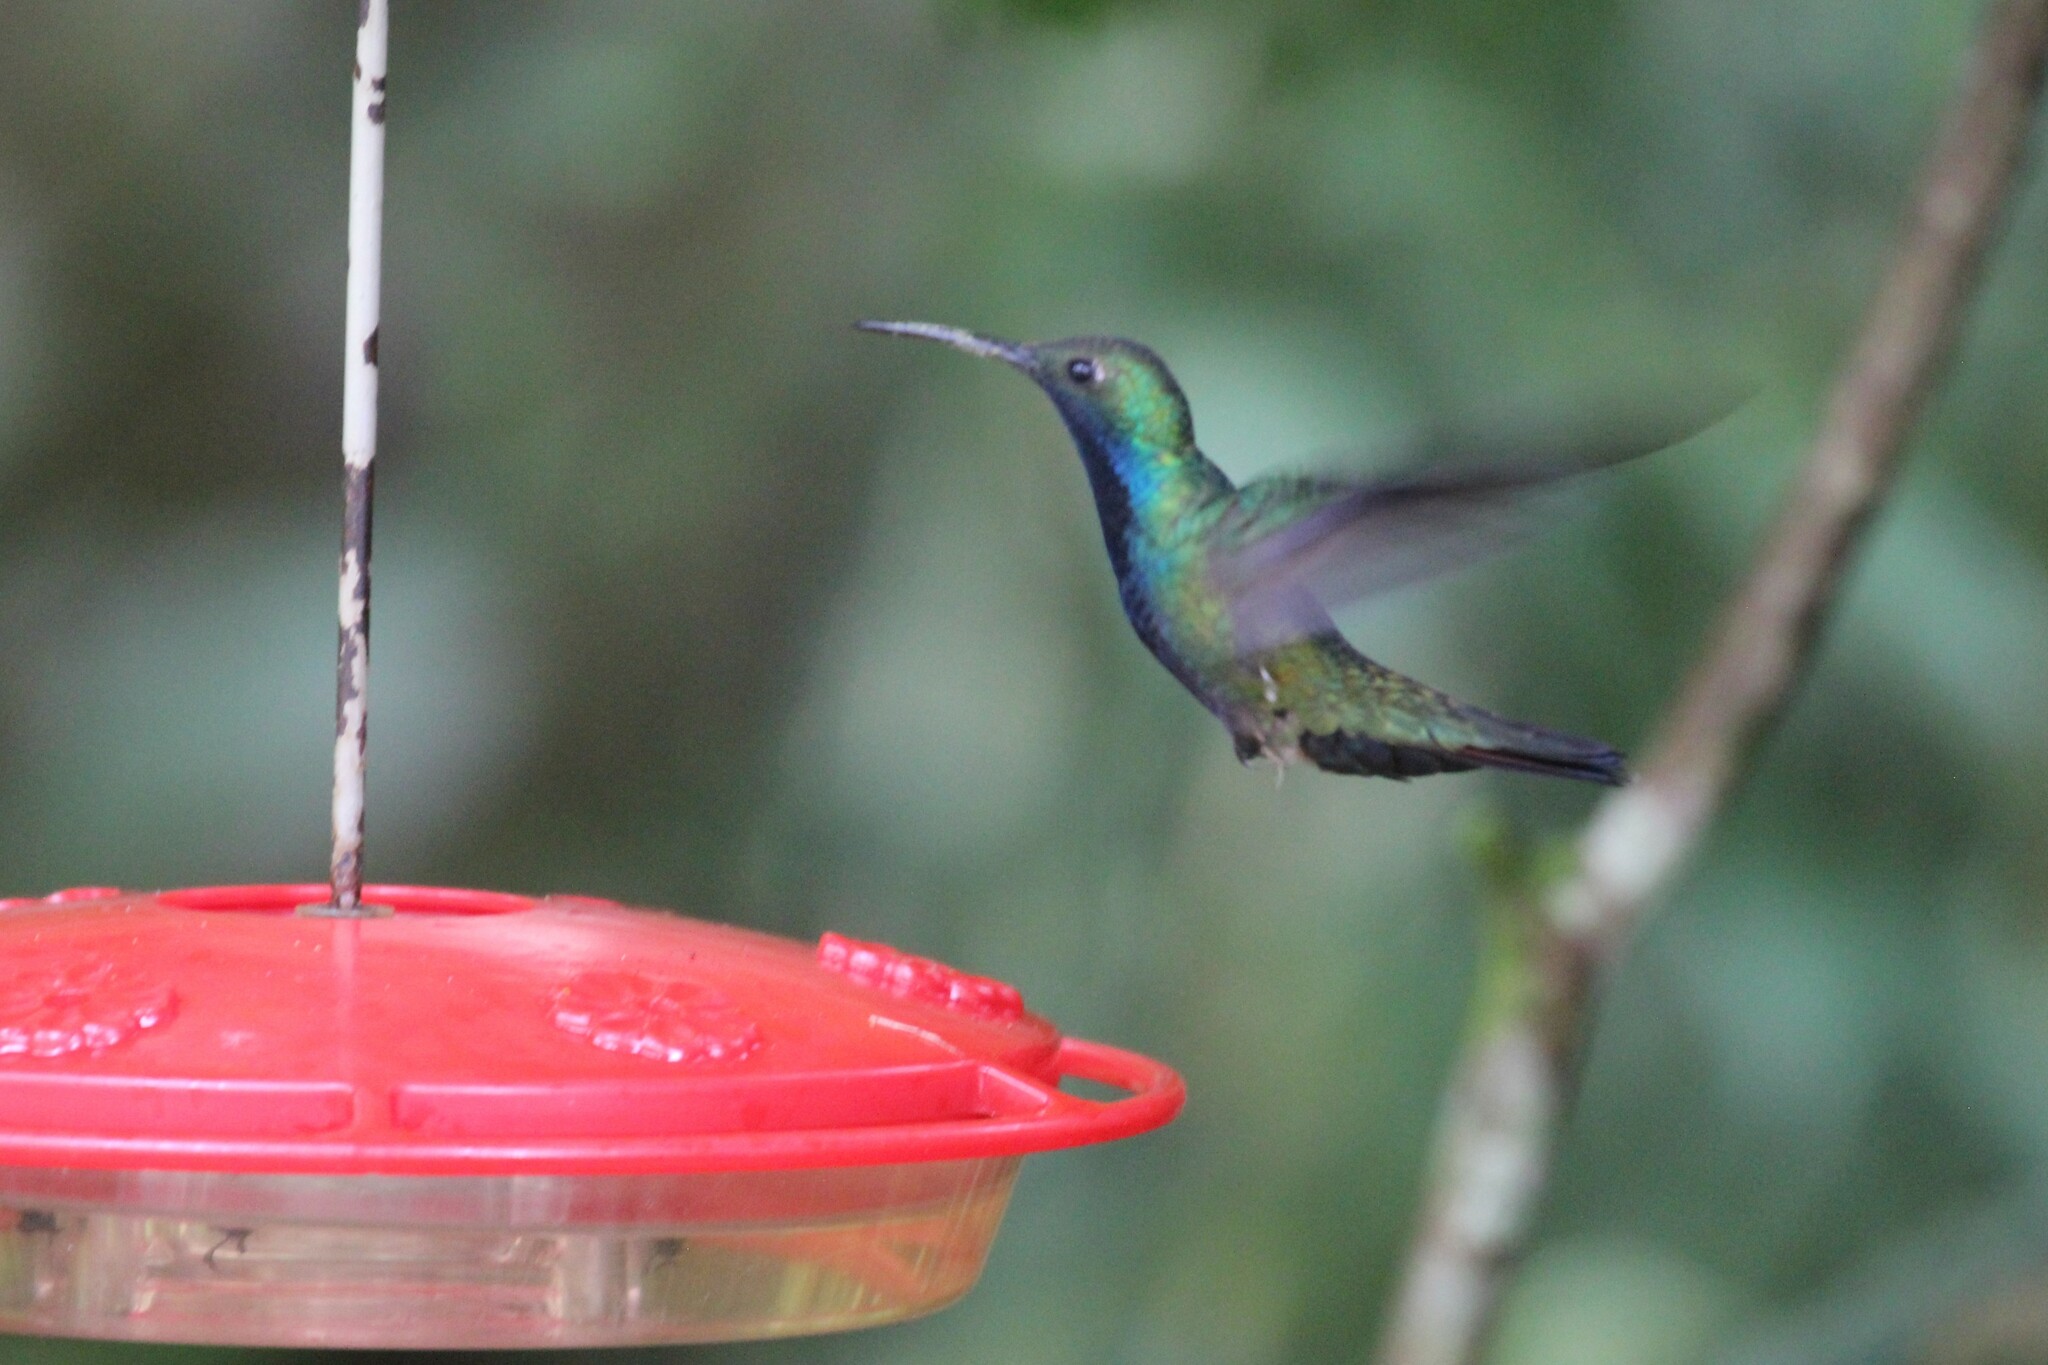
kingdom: Animalia
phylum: Chordata
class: Aves
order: Apodiformes
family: Trochilidae
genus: Anthracothorax
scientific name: Anthracothorax nigricollis
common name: Black-throated mango
